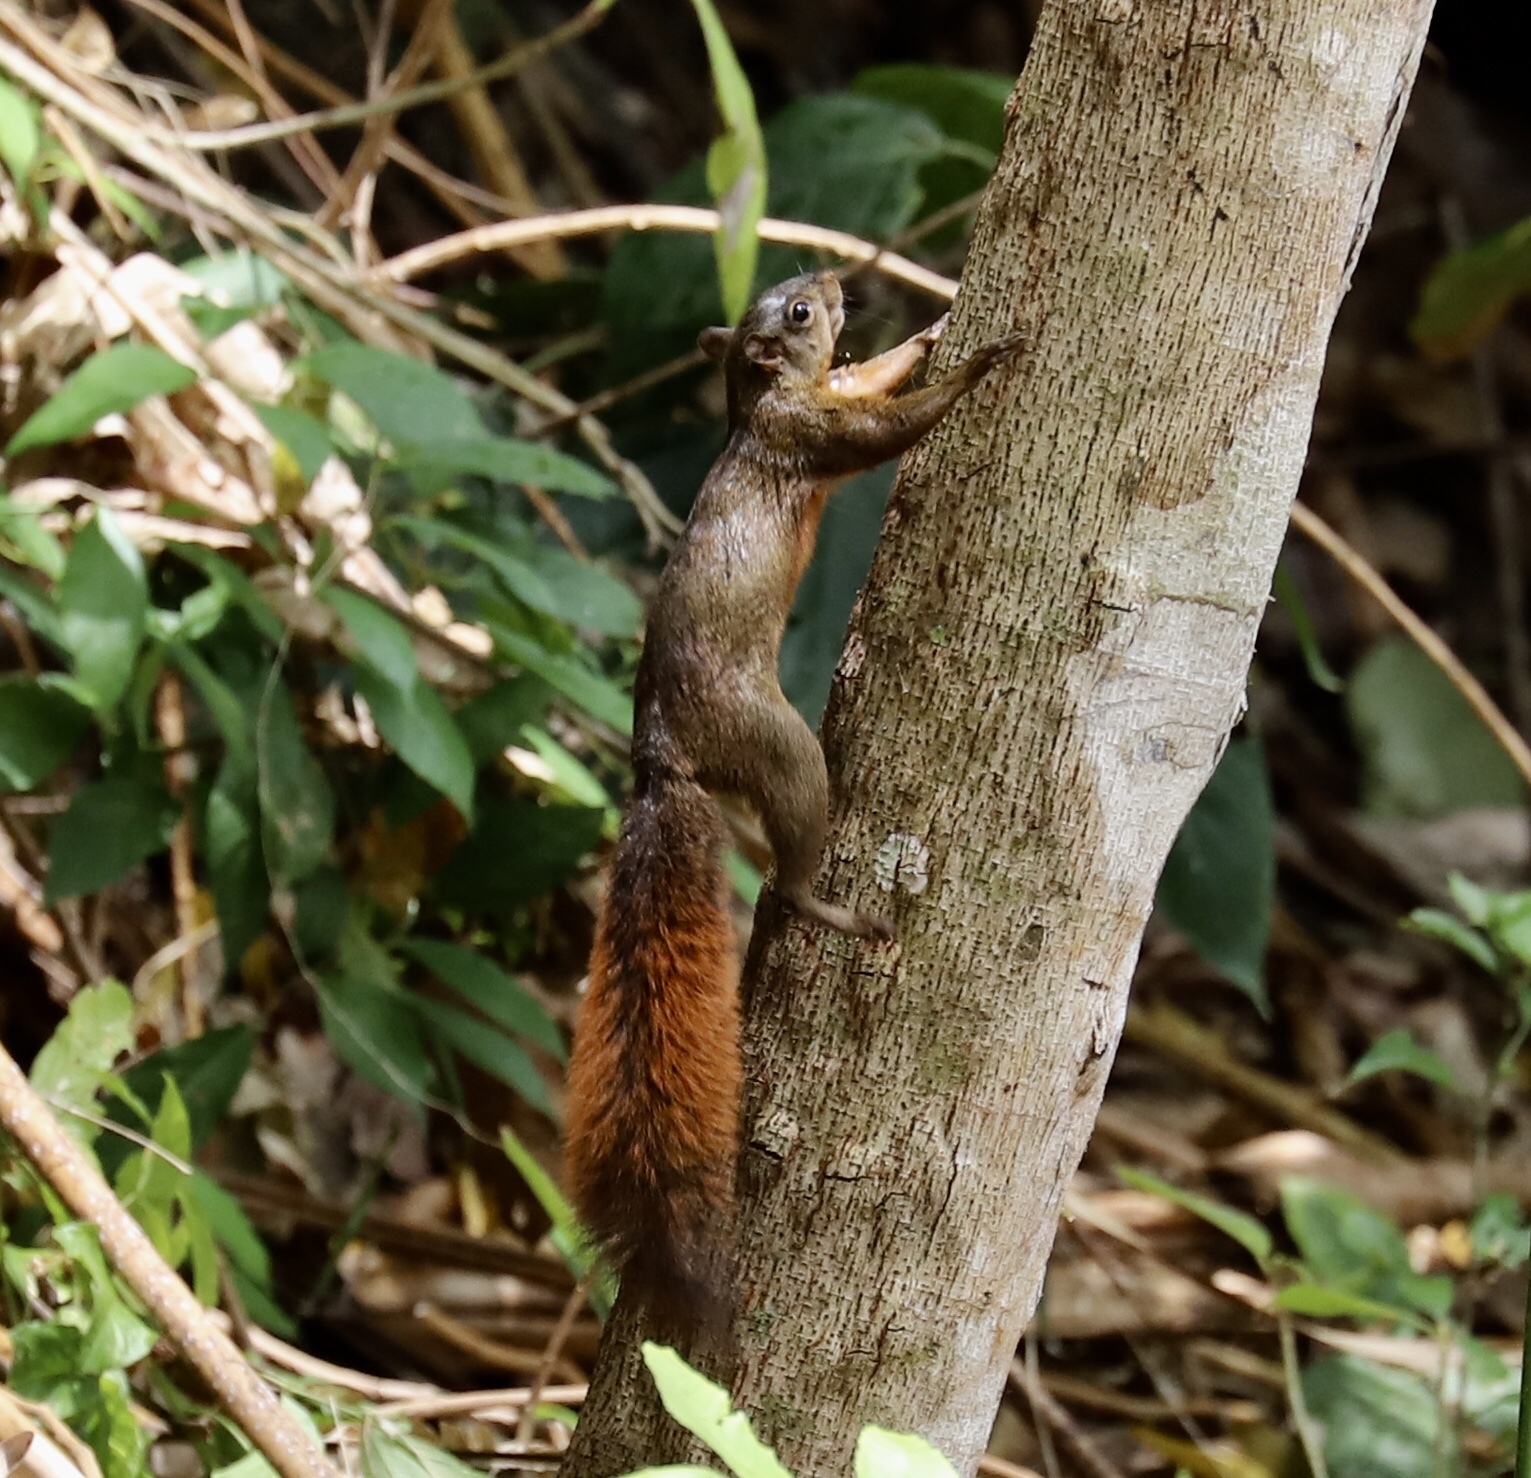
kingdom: Animalia
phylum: Chordata
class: Mammalia
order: Rodentia
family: Sciuridae
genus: Sciurus
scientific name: Sciurus granatensis
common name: Red-tailed squirrel
